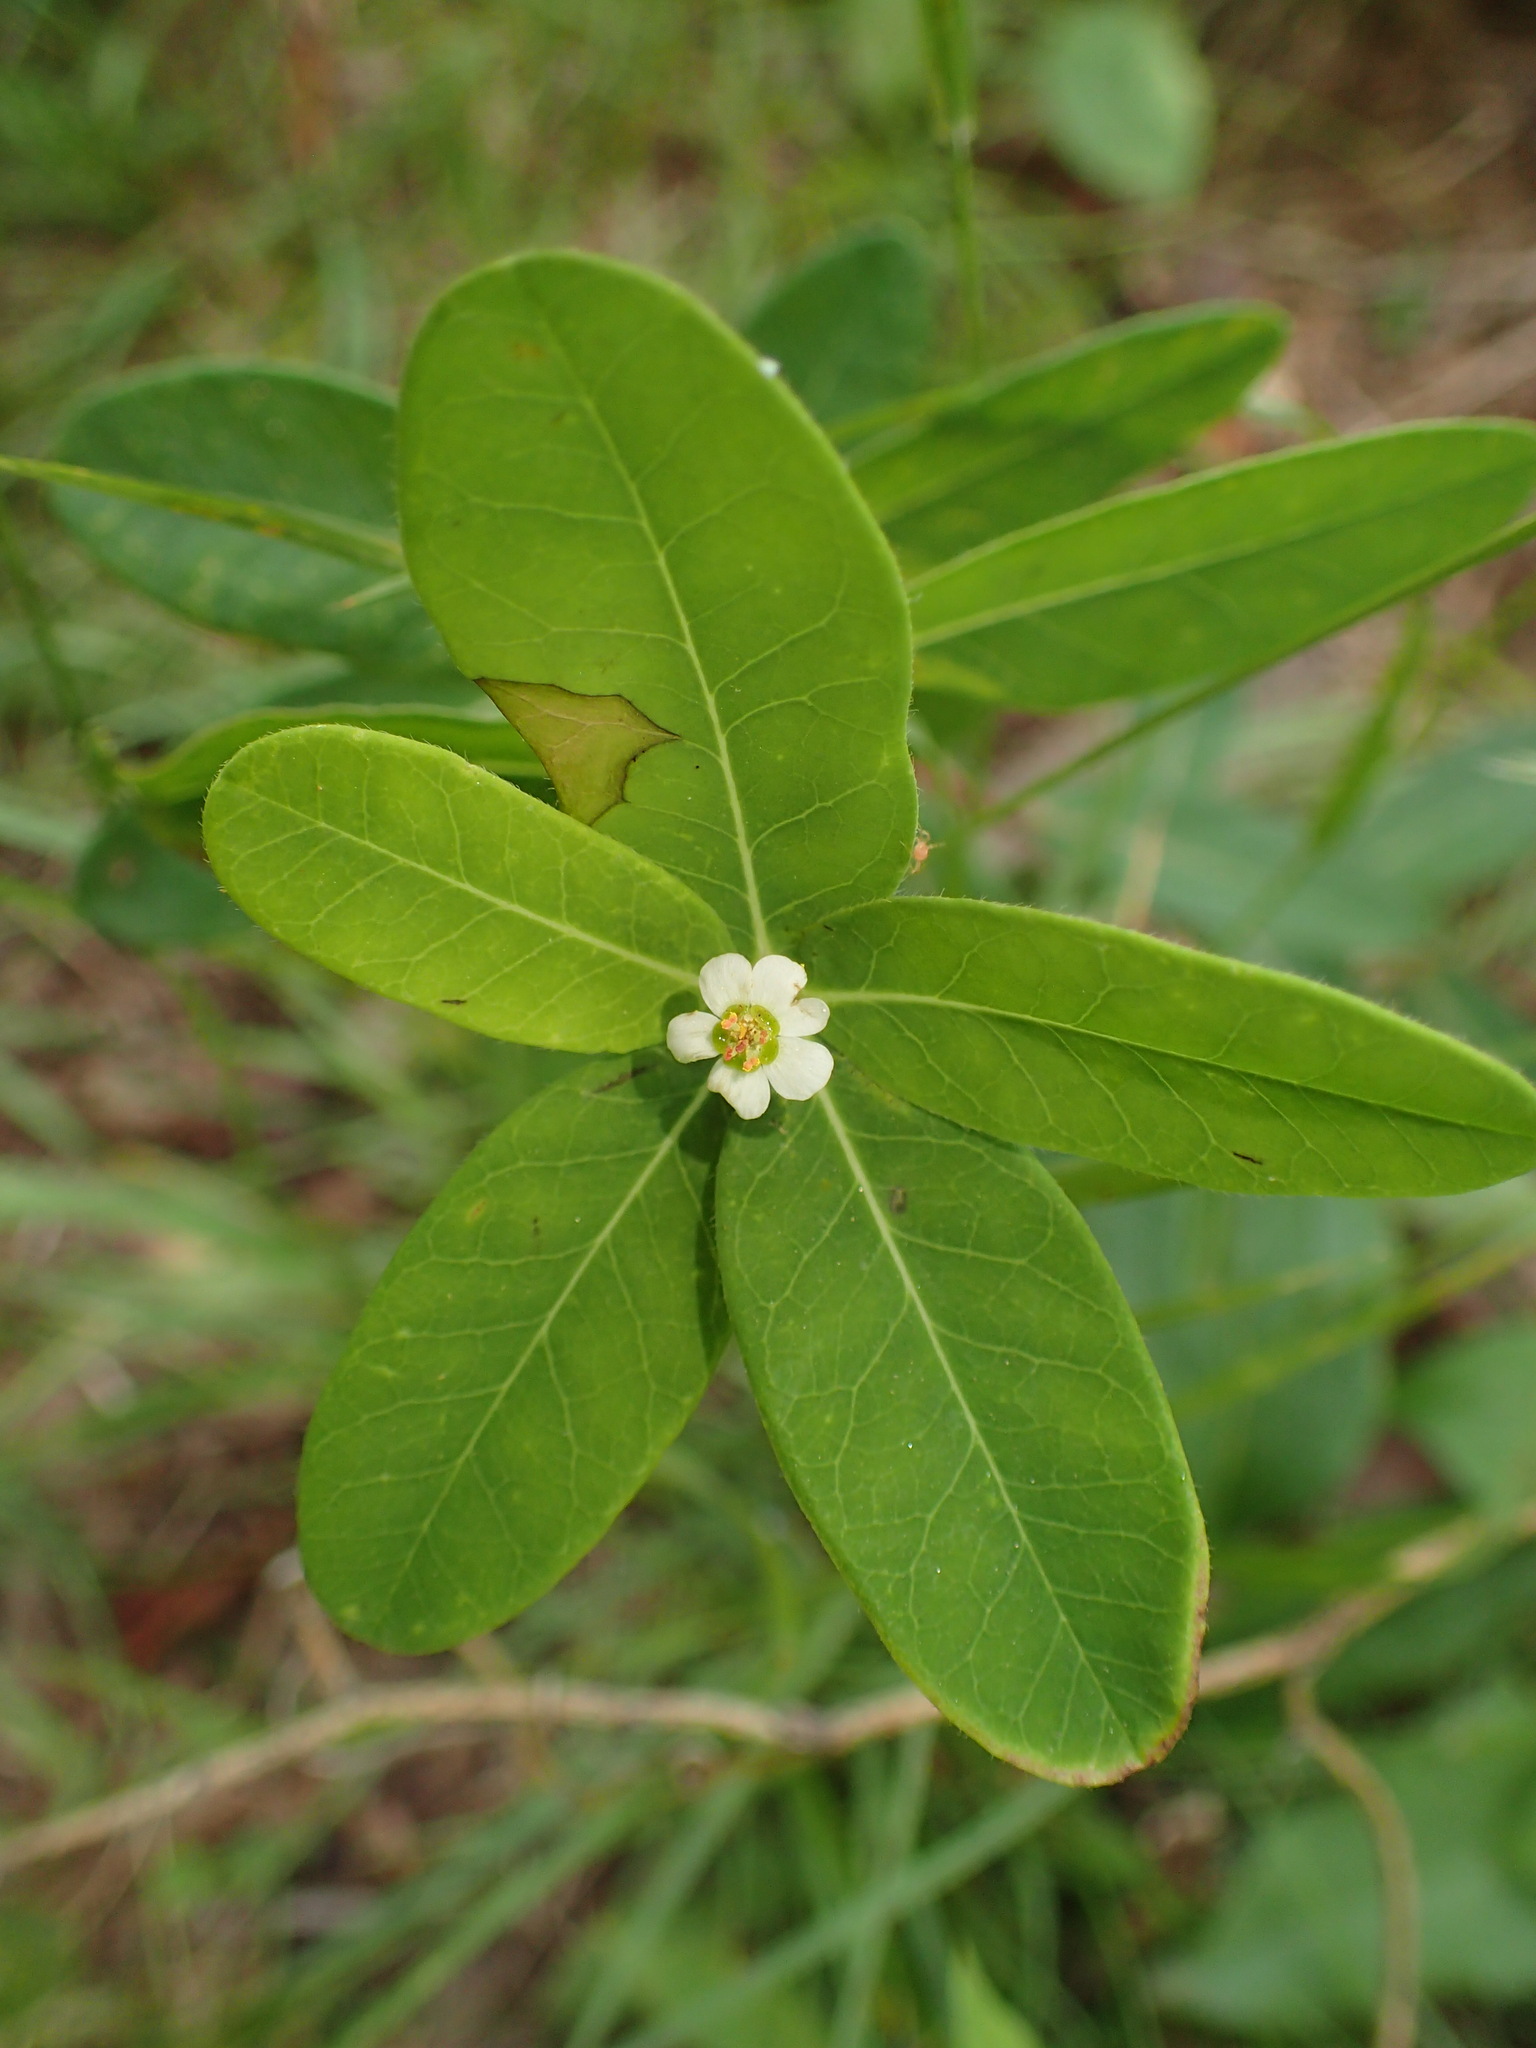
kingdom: Plantae
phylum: Tracheophyta
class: Magnoliopsida
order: Malpighiales
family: Euphorbiaceae
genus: Euphorbia
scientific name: Euphorbia pubentissima
